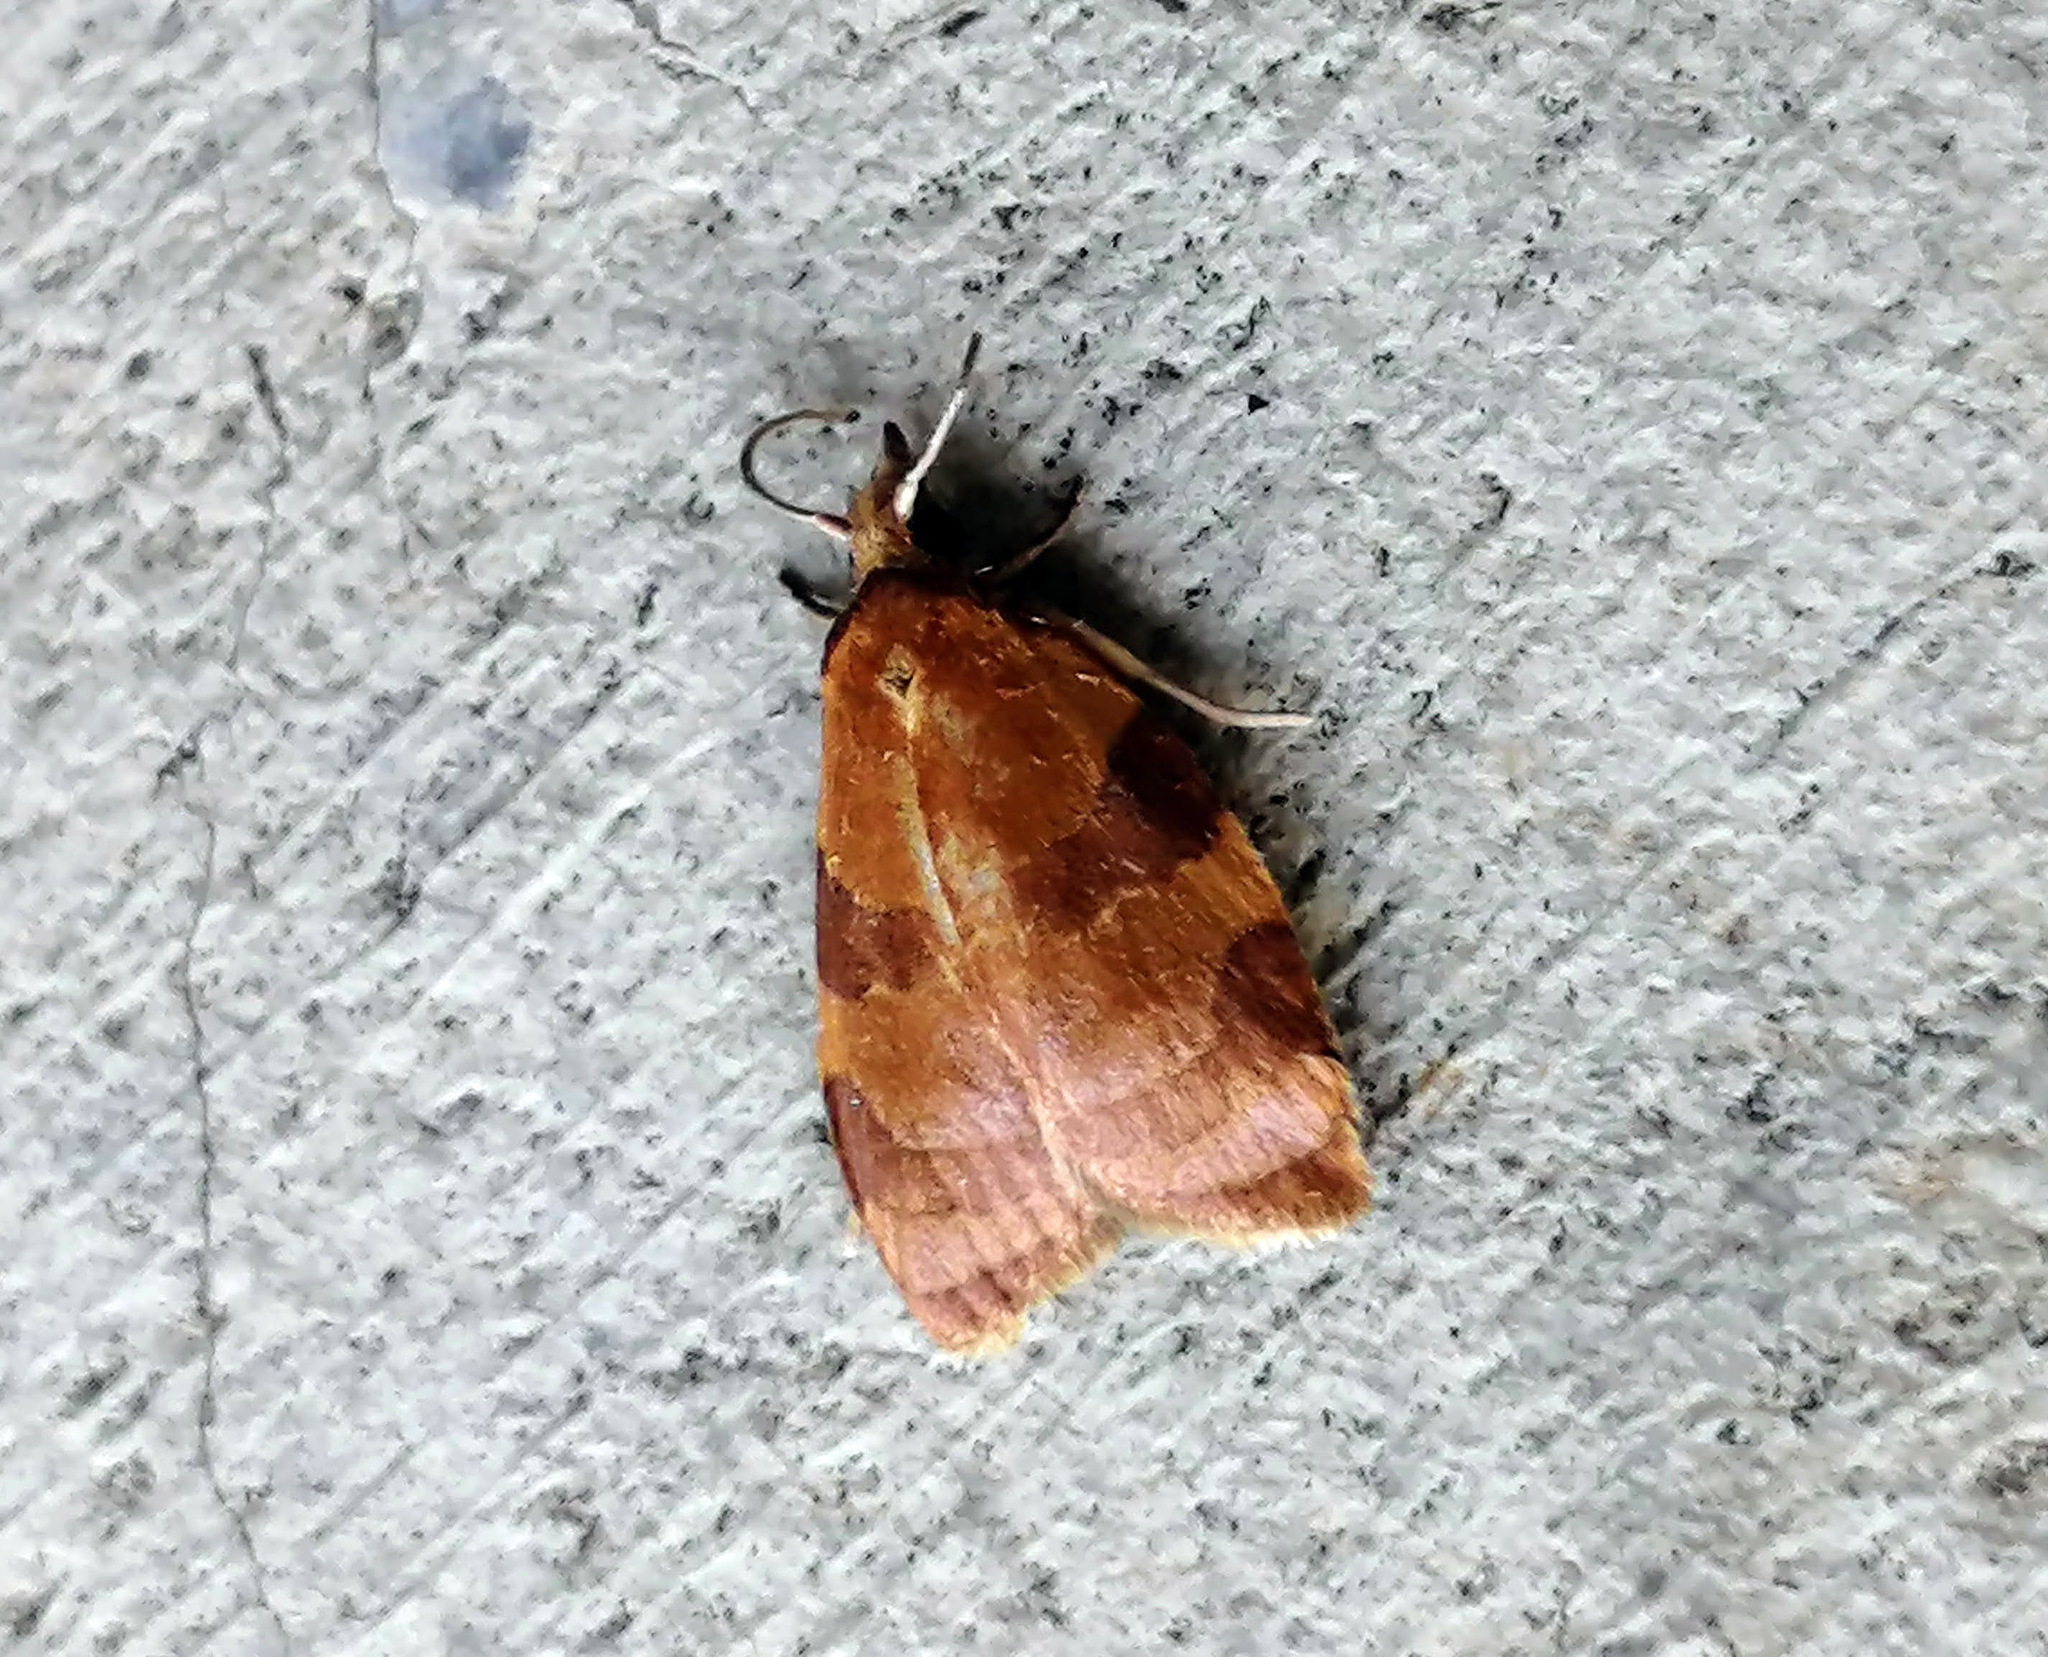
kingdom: Animalia
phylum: Arthropoda
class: Insecta
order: Lepidoptera
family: Tortricidae
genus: Cenopis
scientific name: Cenopis diluticostana
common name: Spring dead-leaf roller moth
